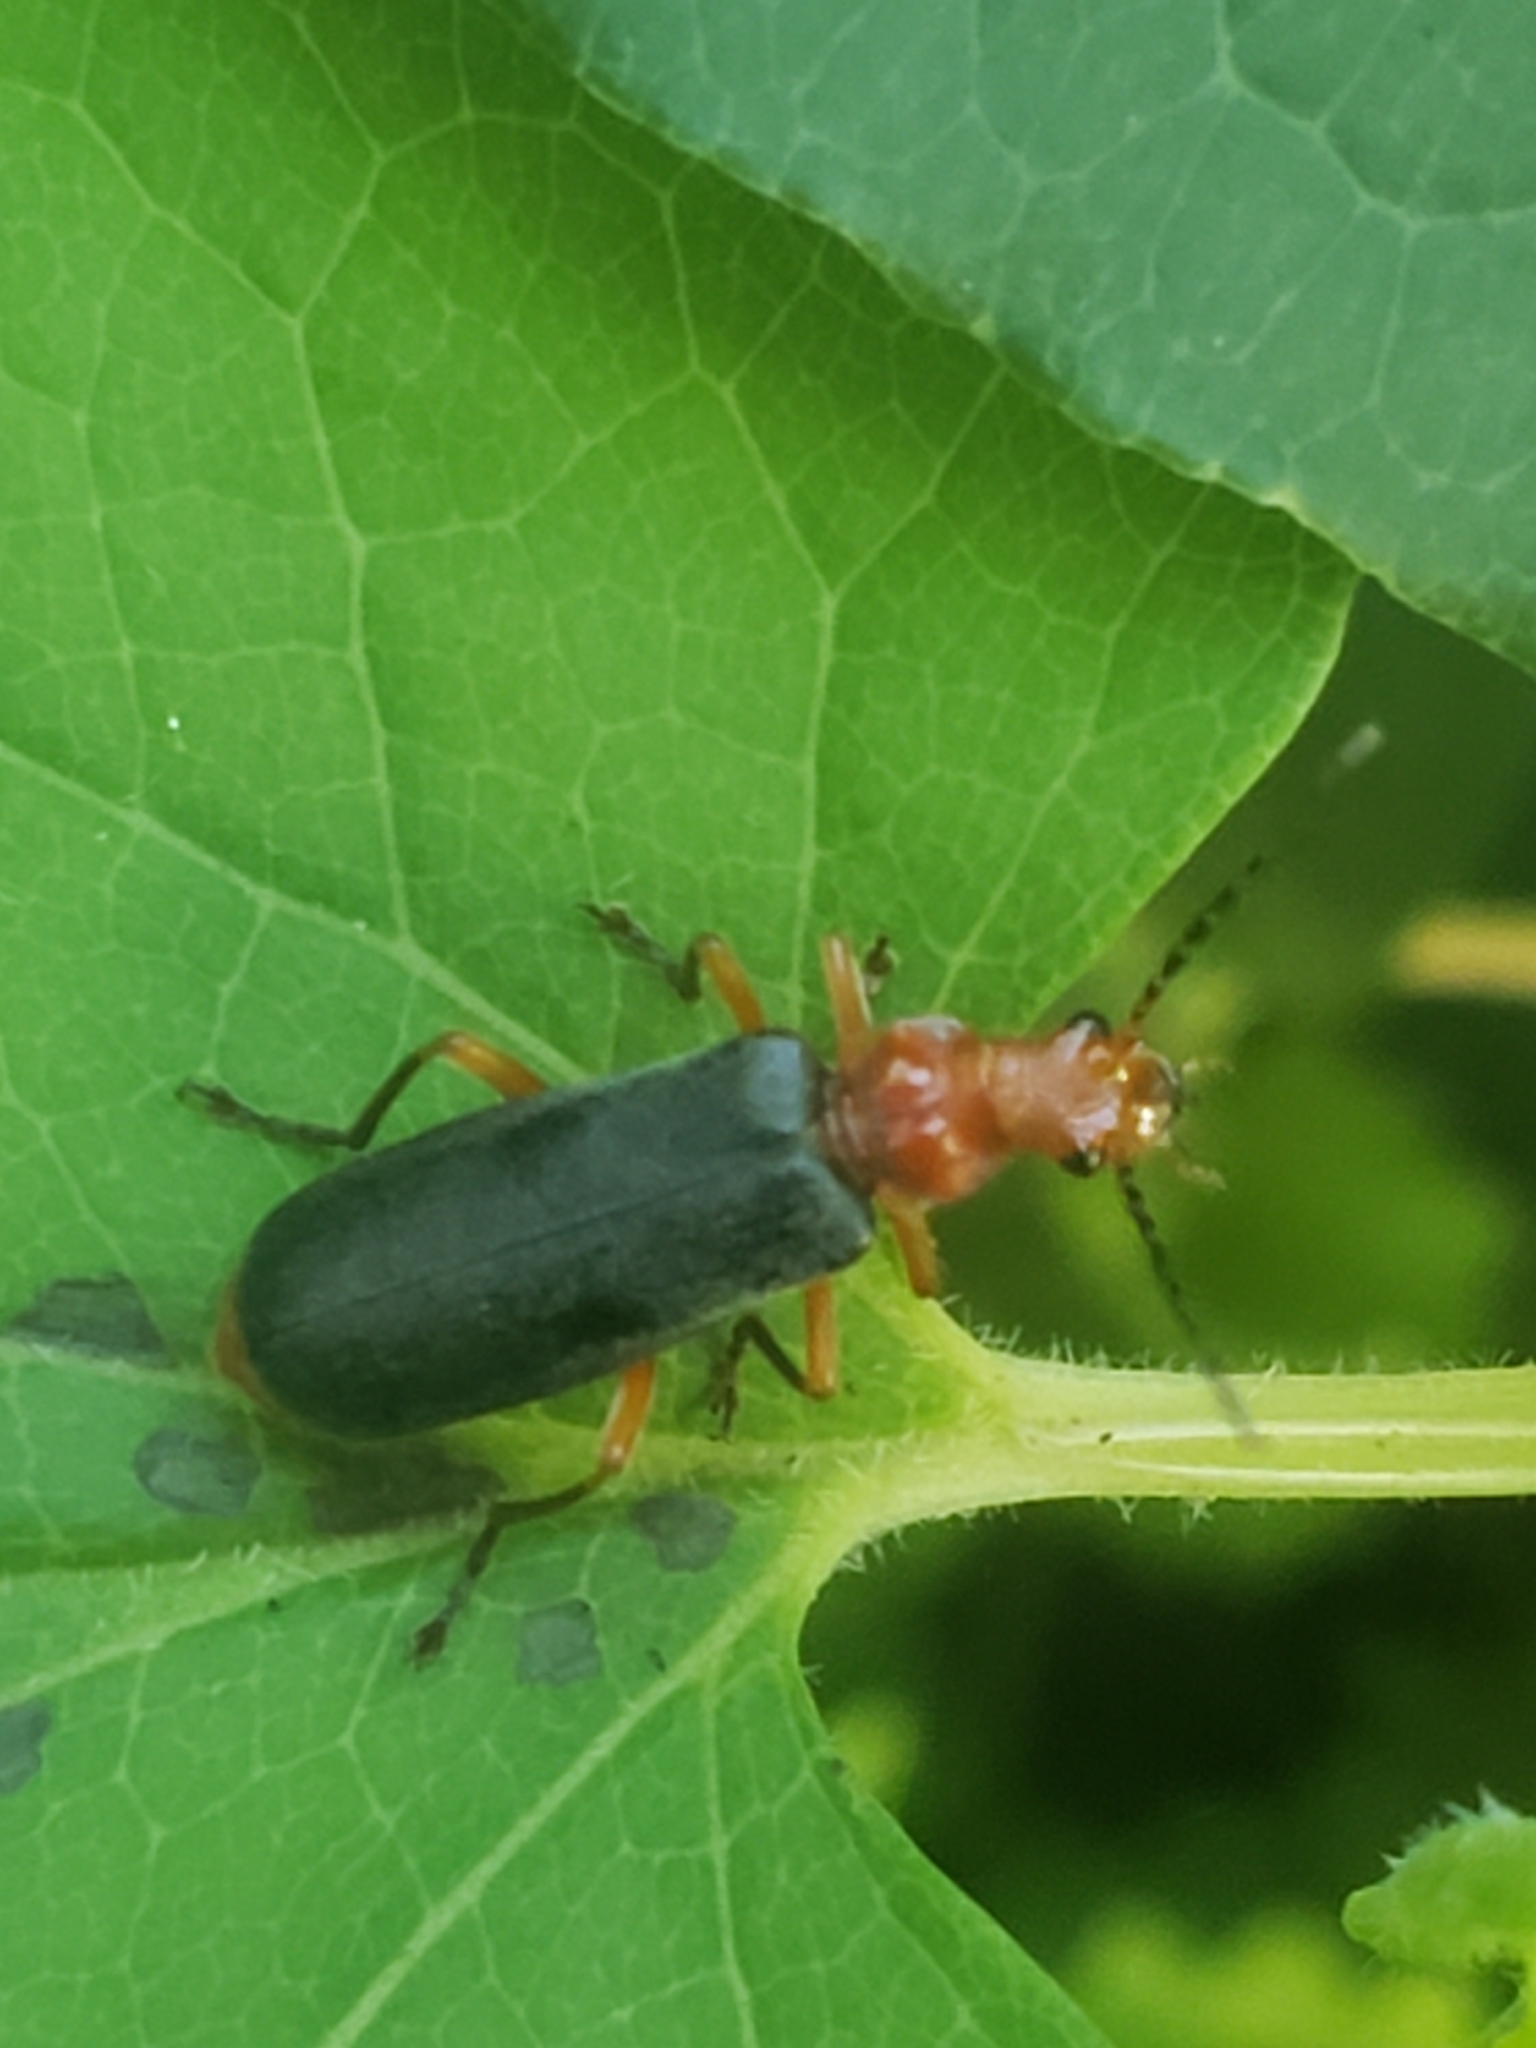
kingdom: Animalia
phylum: Arthropoda
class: Insecta
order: Coleoptera
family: Cantharidae
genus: Podabrus
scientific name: Podabrus tomentosus
